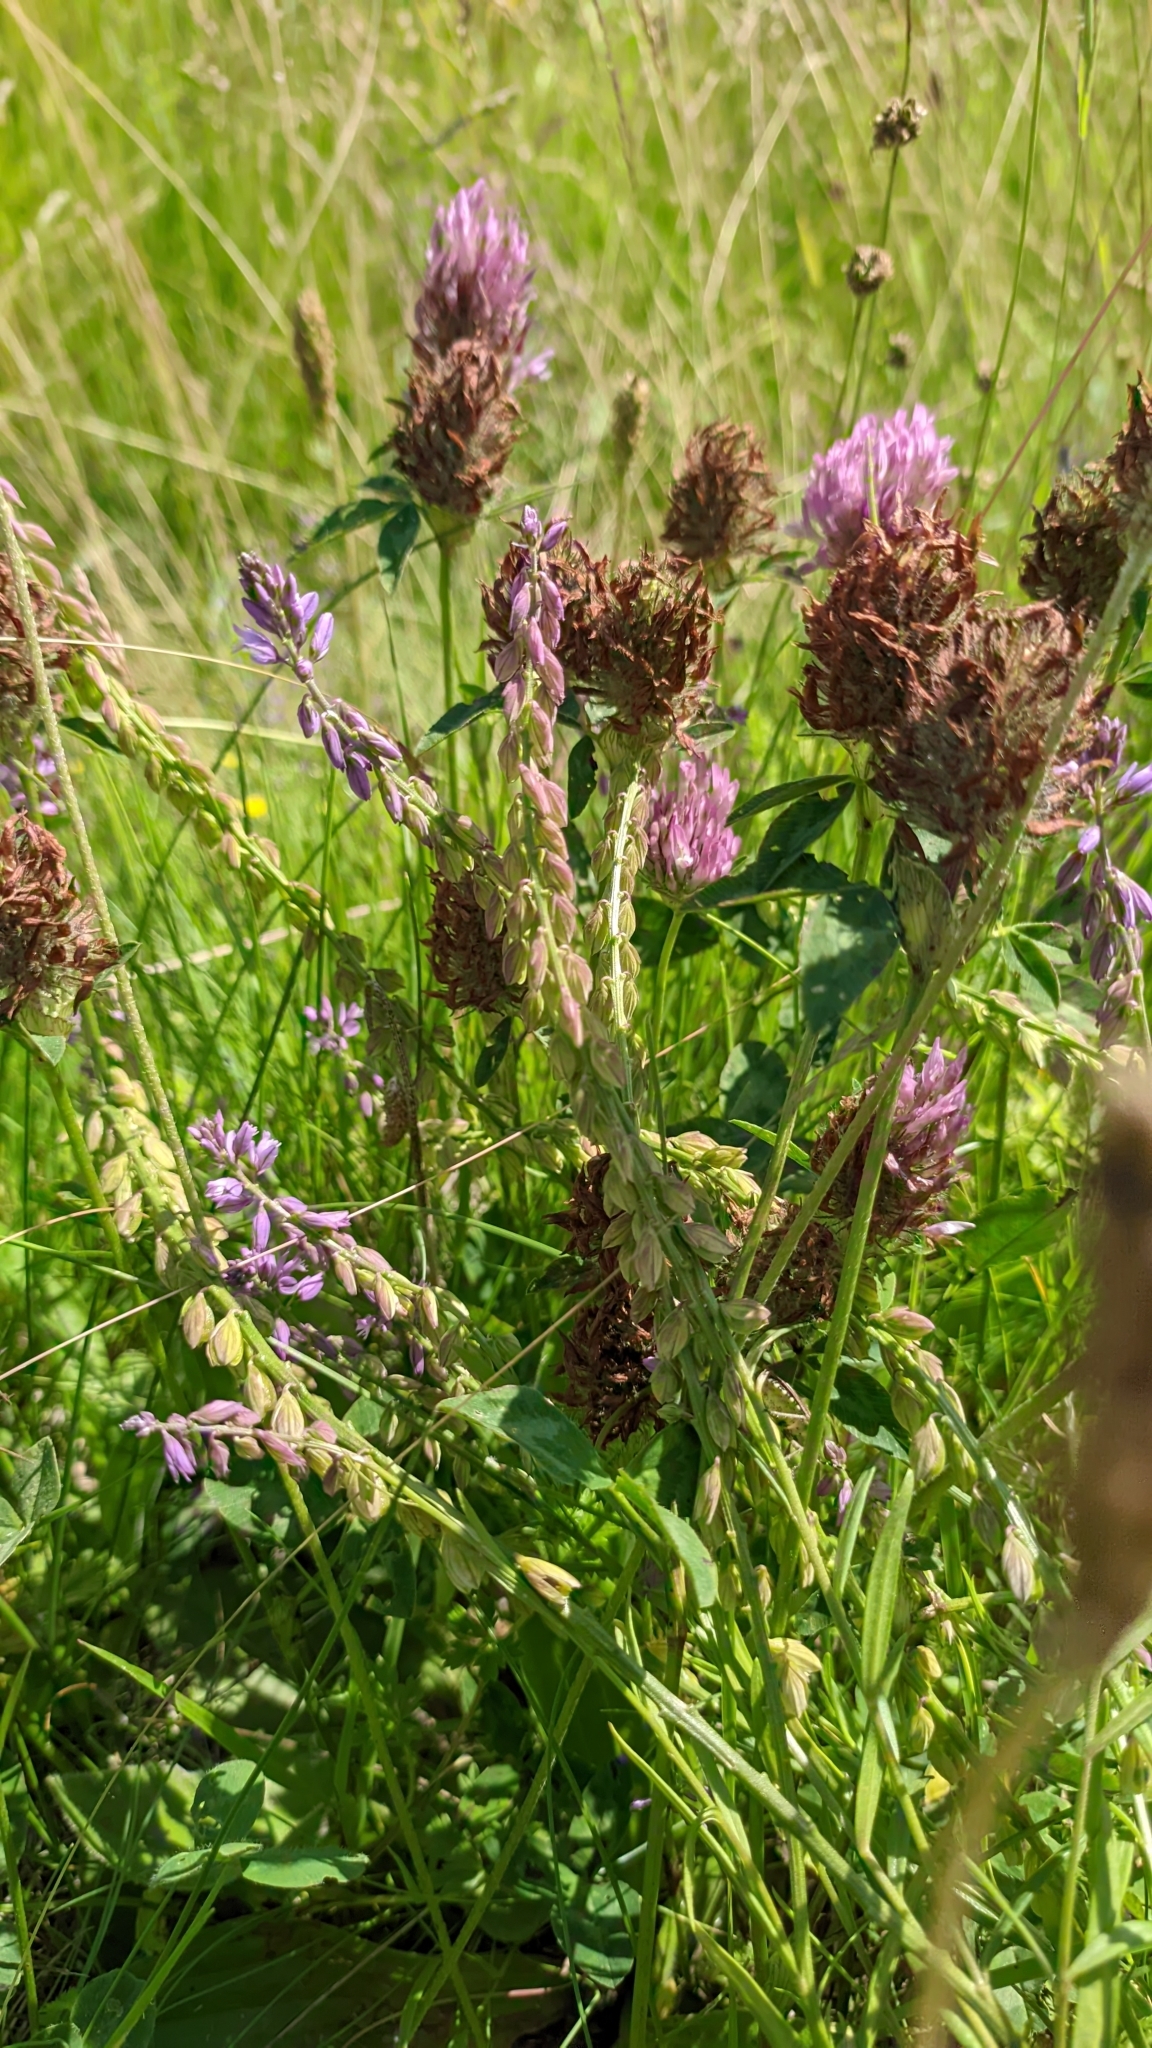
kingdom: Plantae
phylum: Tracheophyta
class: Magnoliopsida
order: Fabales
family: Polygalaceae
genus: Polygala
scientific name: Polygala comosa
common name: Tufted milkwort
